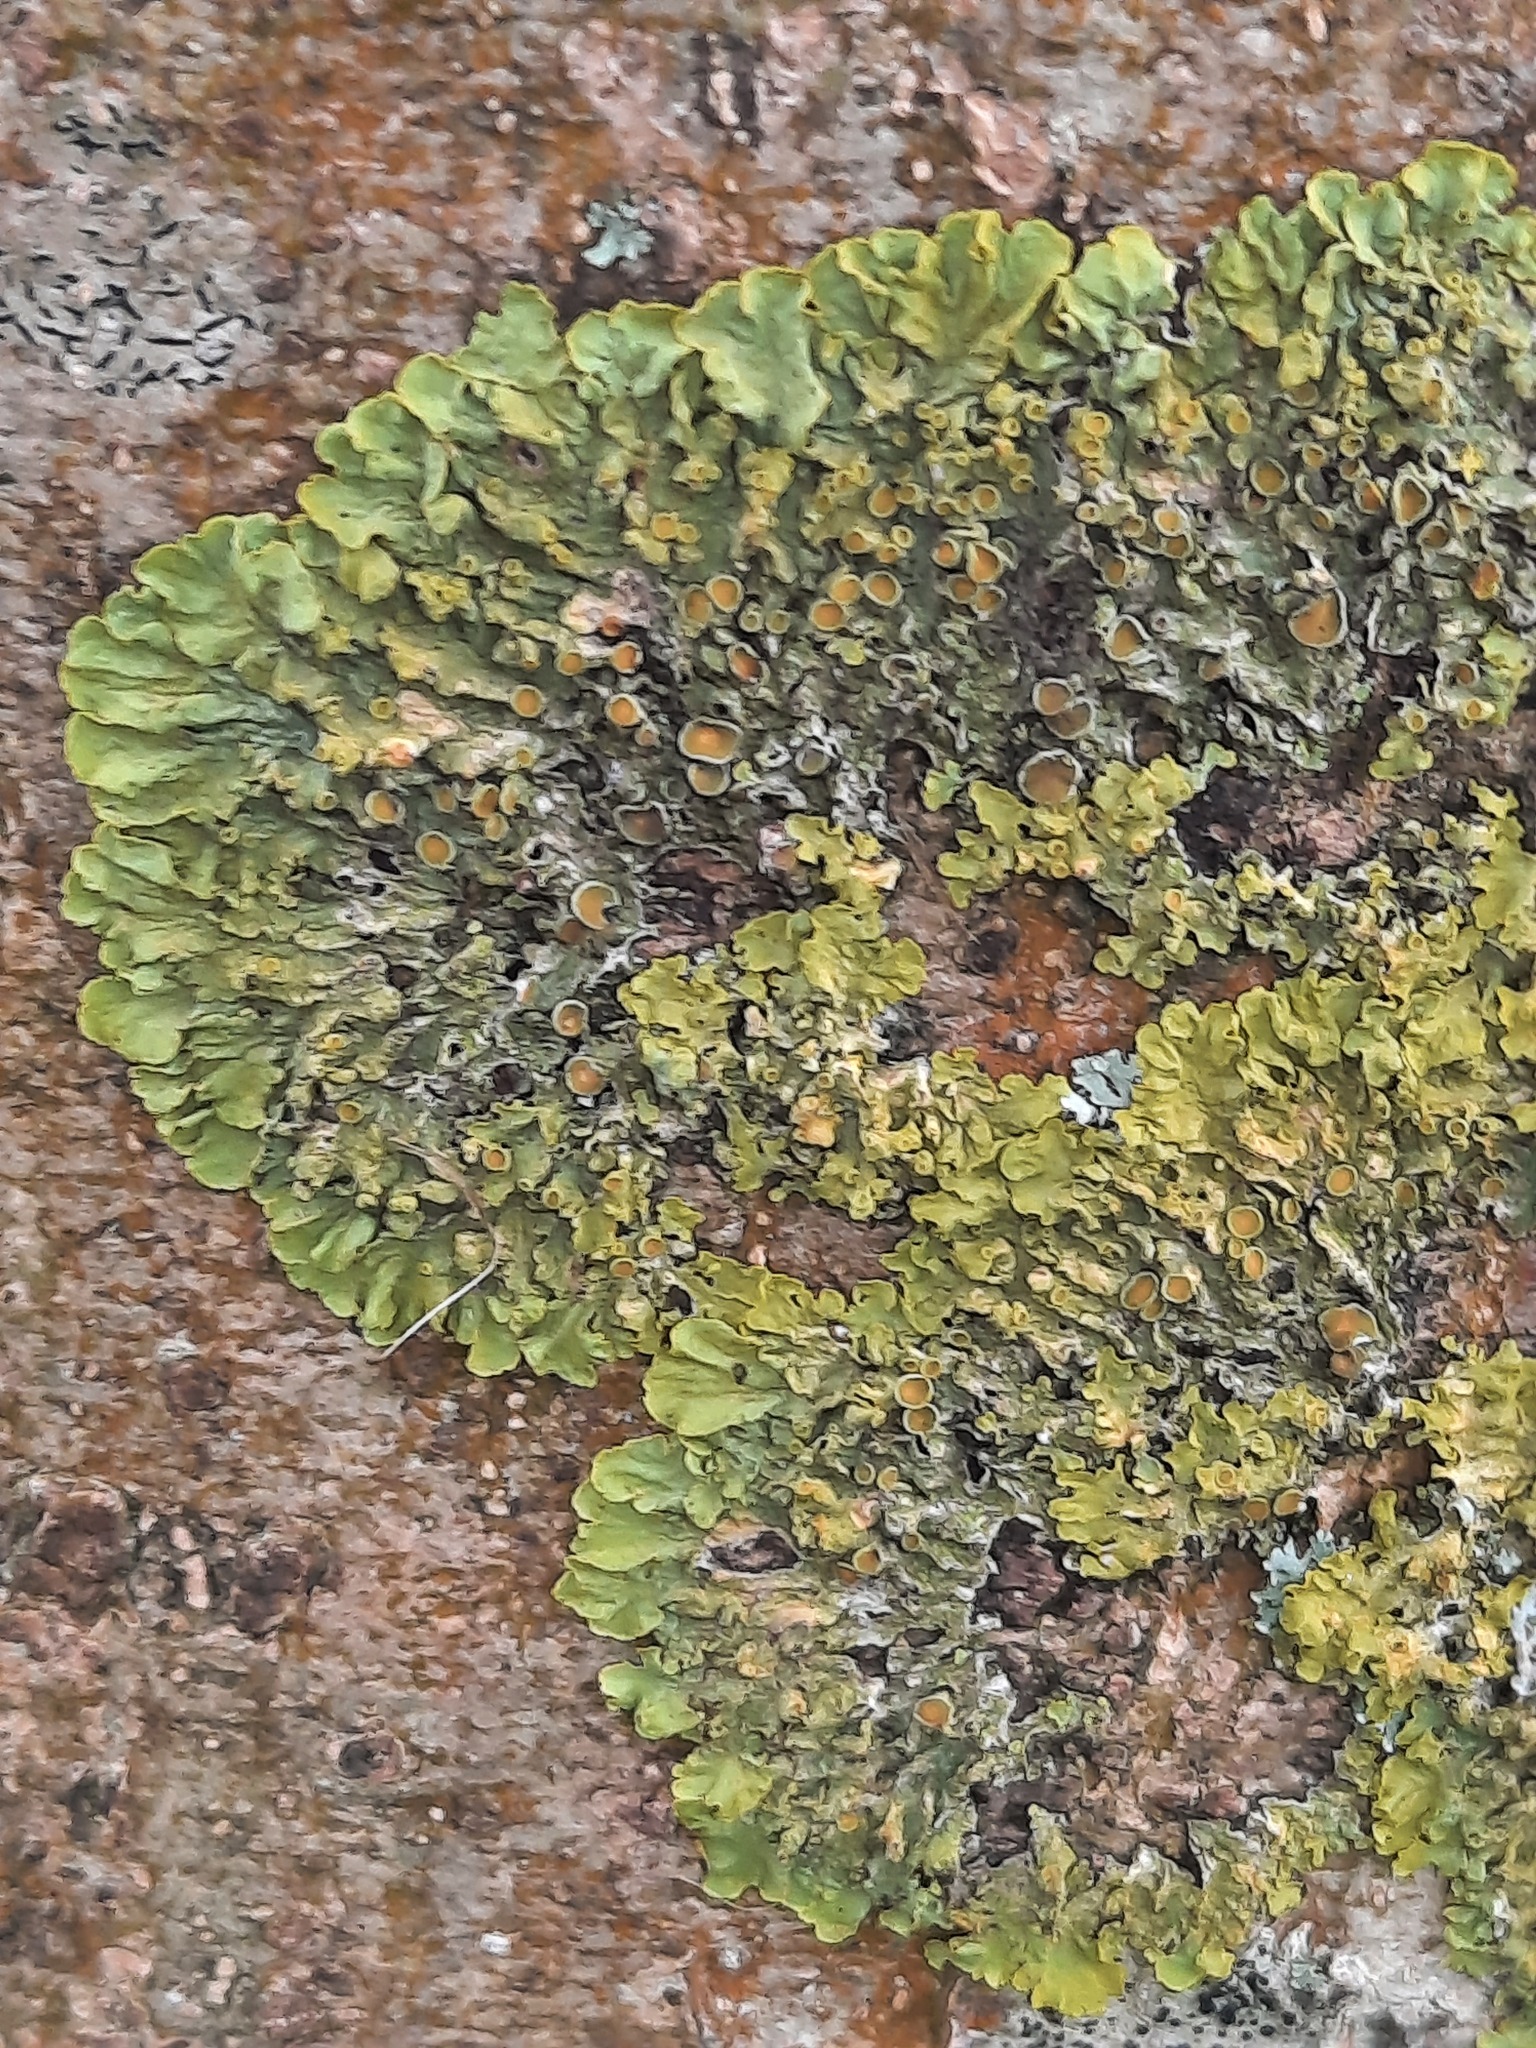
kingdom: Fungi
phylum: Ascomycota
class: Lecanoromycetes
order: Teloschistales
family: Teloschistaceae
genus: Xanthoria
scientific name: Xanthoria parietina
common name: Common orange lichen
